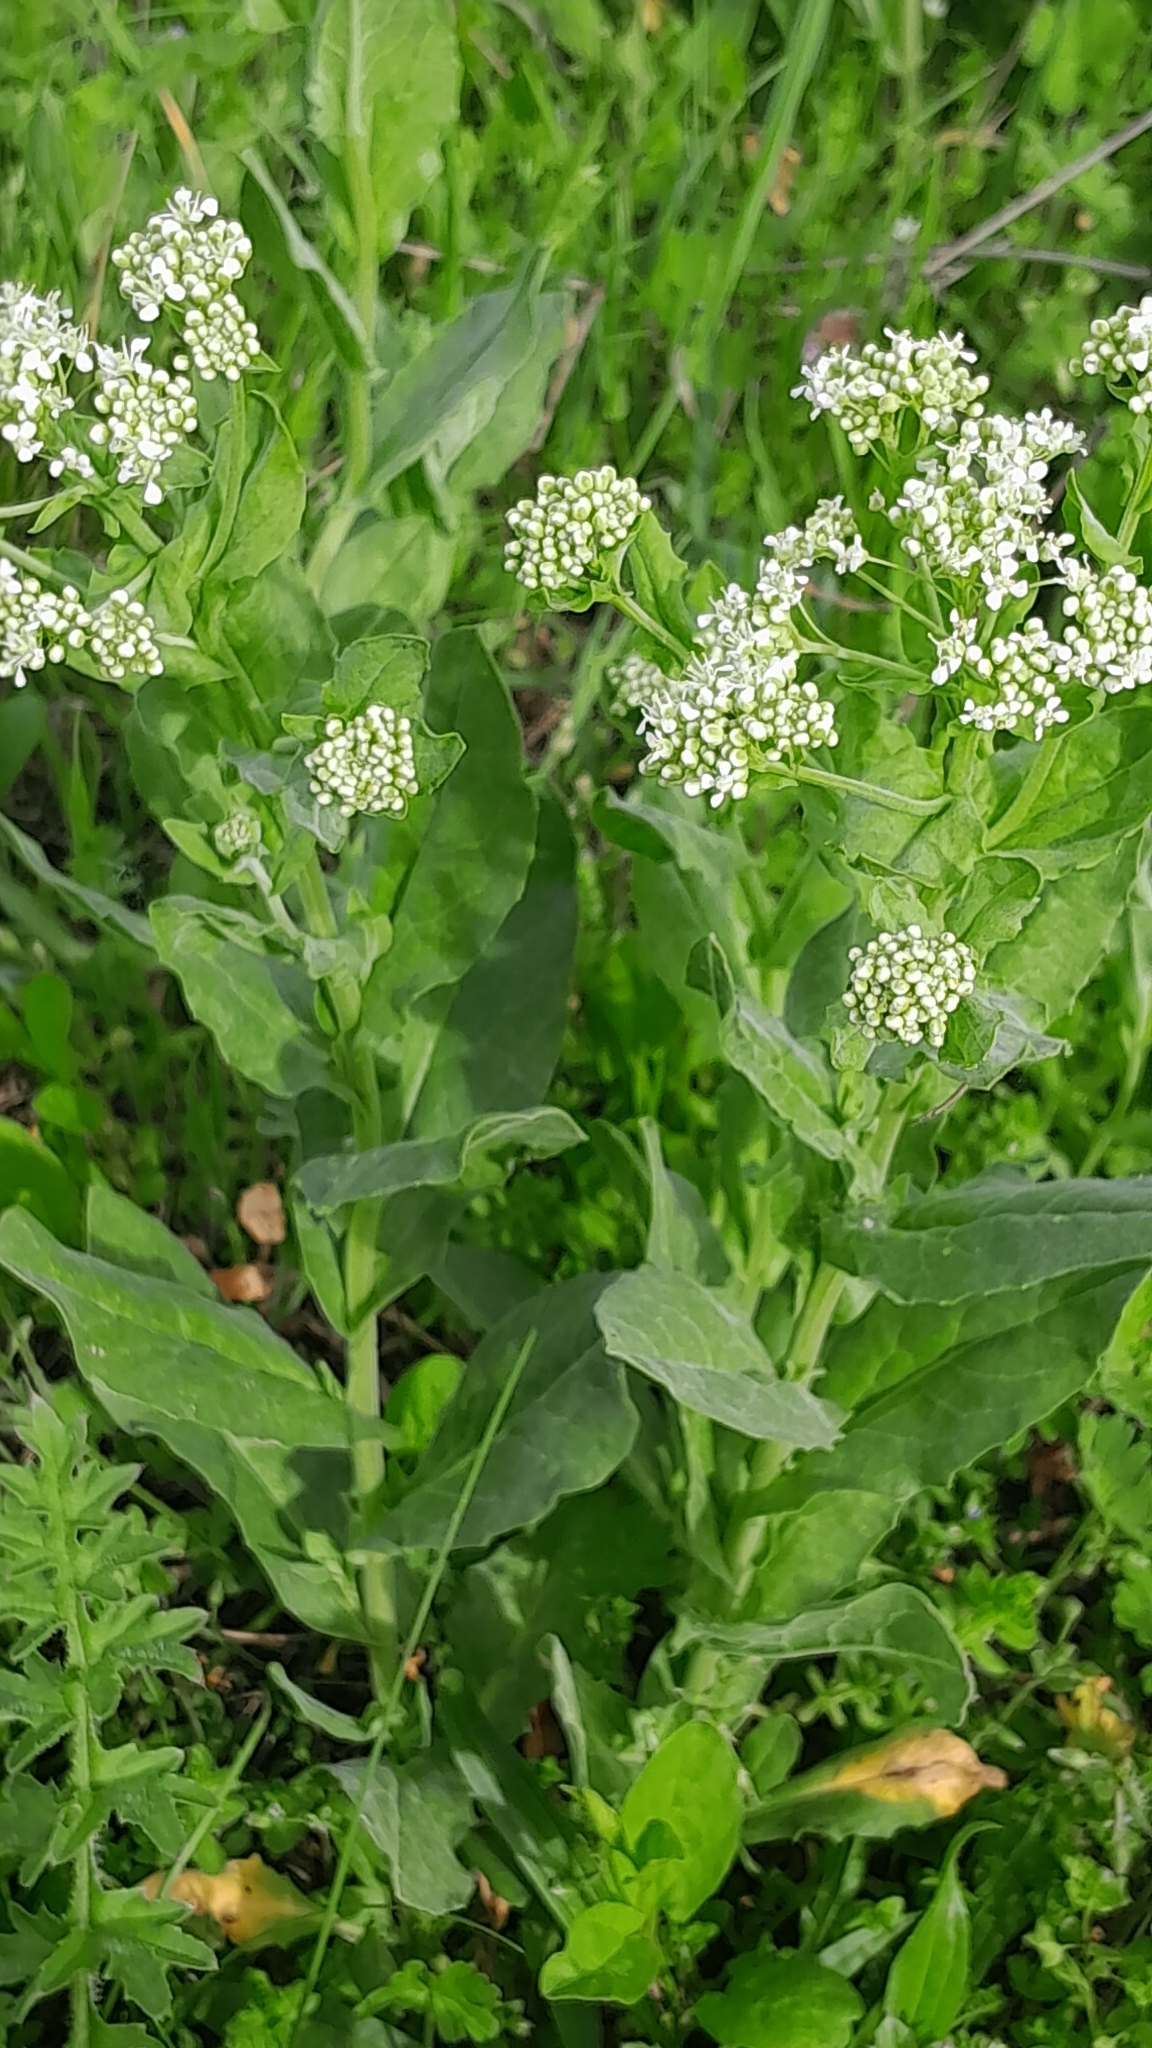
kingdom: Plantae
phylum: Tracheophyta
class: Magnoliopsida
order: Brassicales
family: Brassicaceae
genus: Lepidium
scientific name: Lepidium draba
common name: Hoary cress
